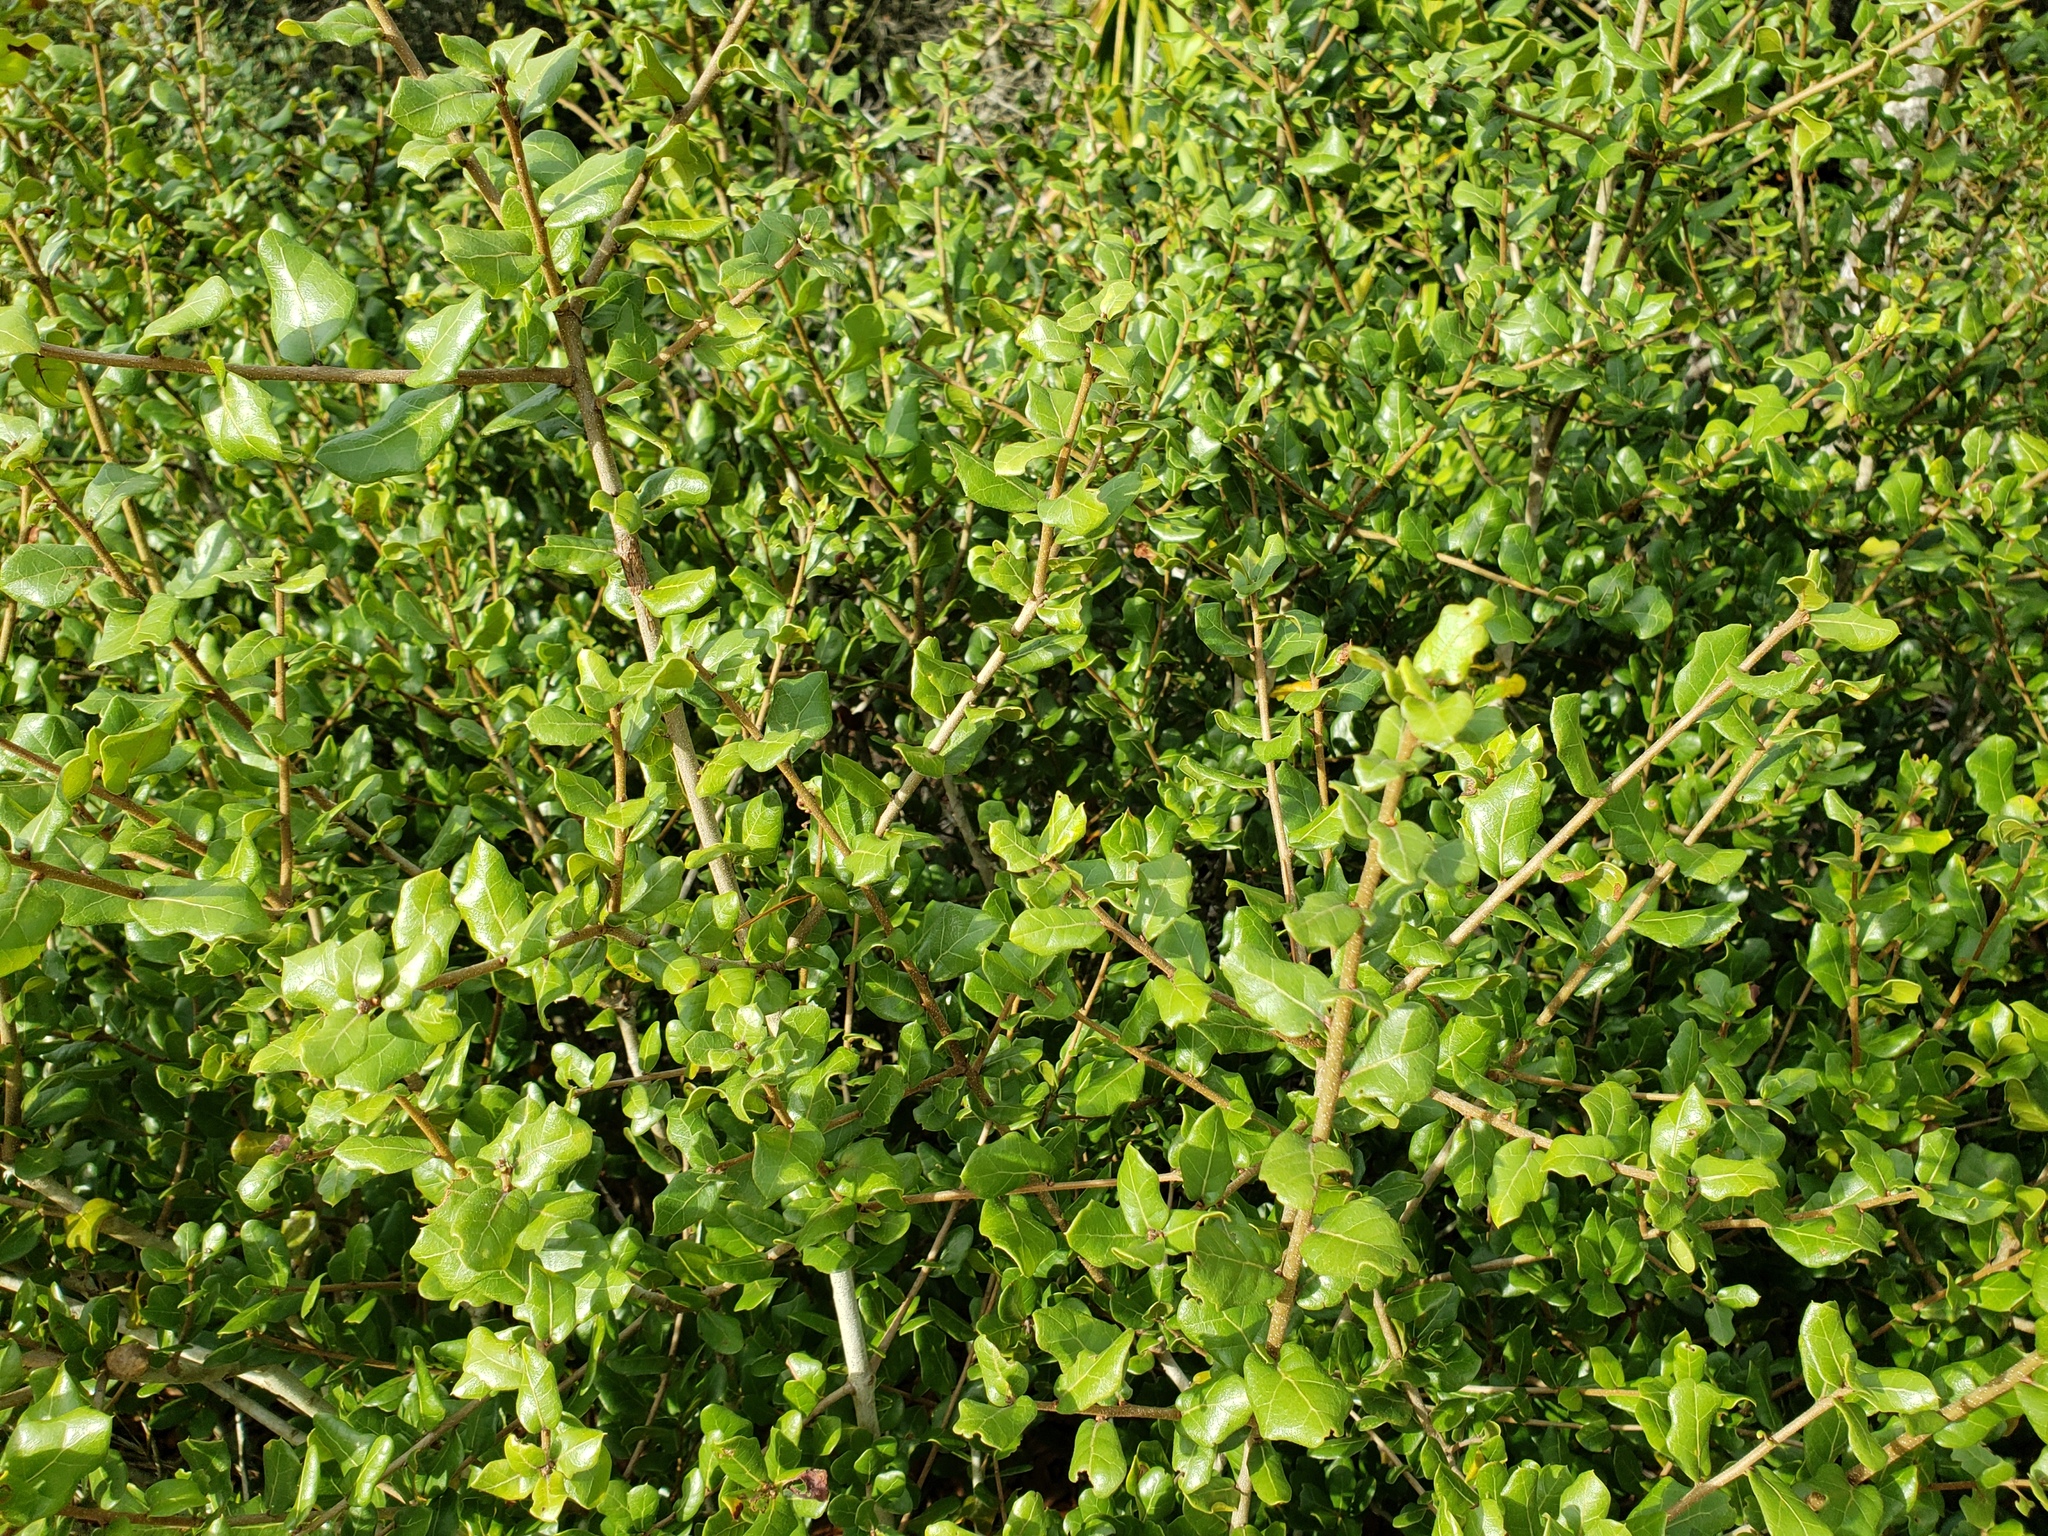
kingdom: Plantae
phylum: Tracheophyta
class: Magnoliopsida
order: Fagales
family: Fagaceae
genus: Quercus
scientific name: Quercus myrtifolia
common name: Myrtle oak
